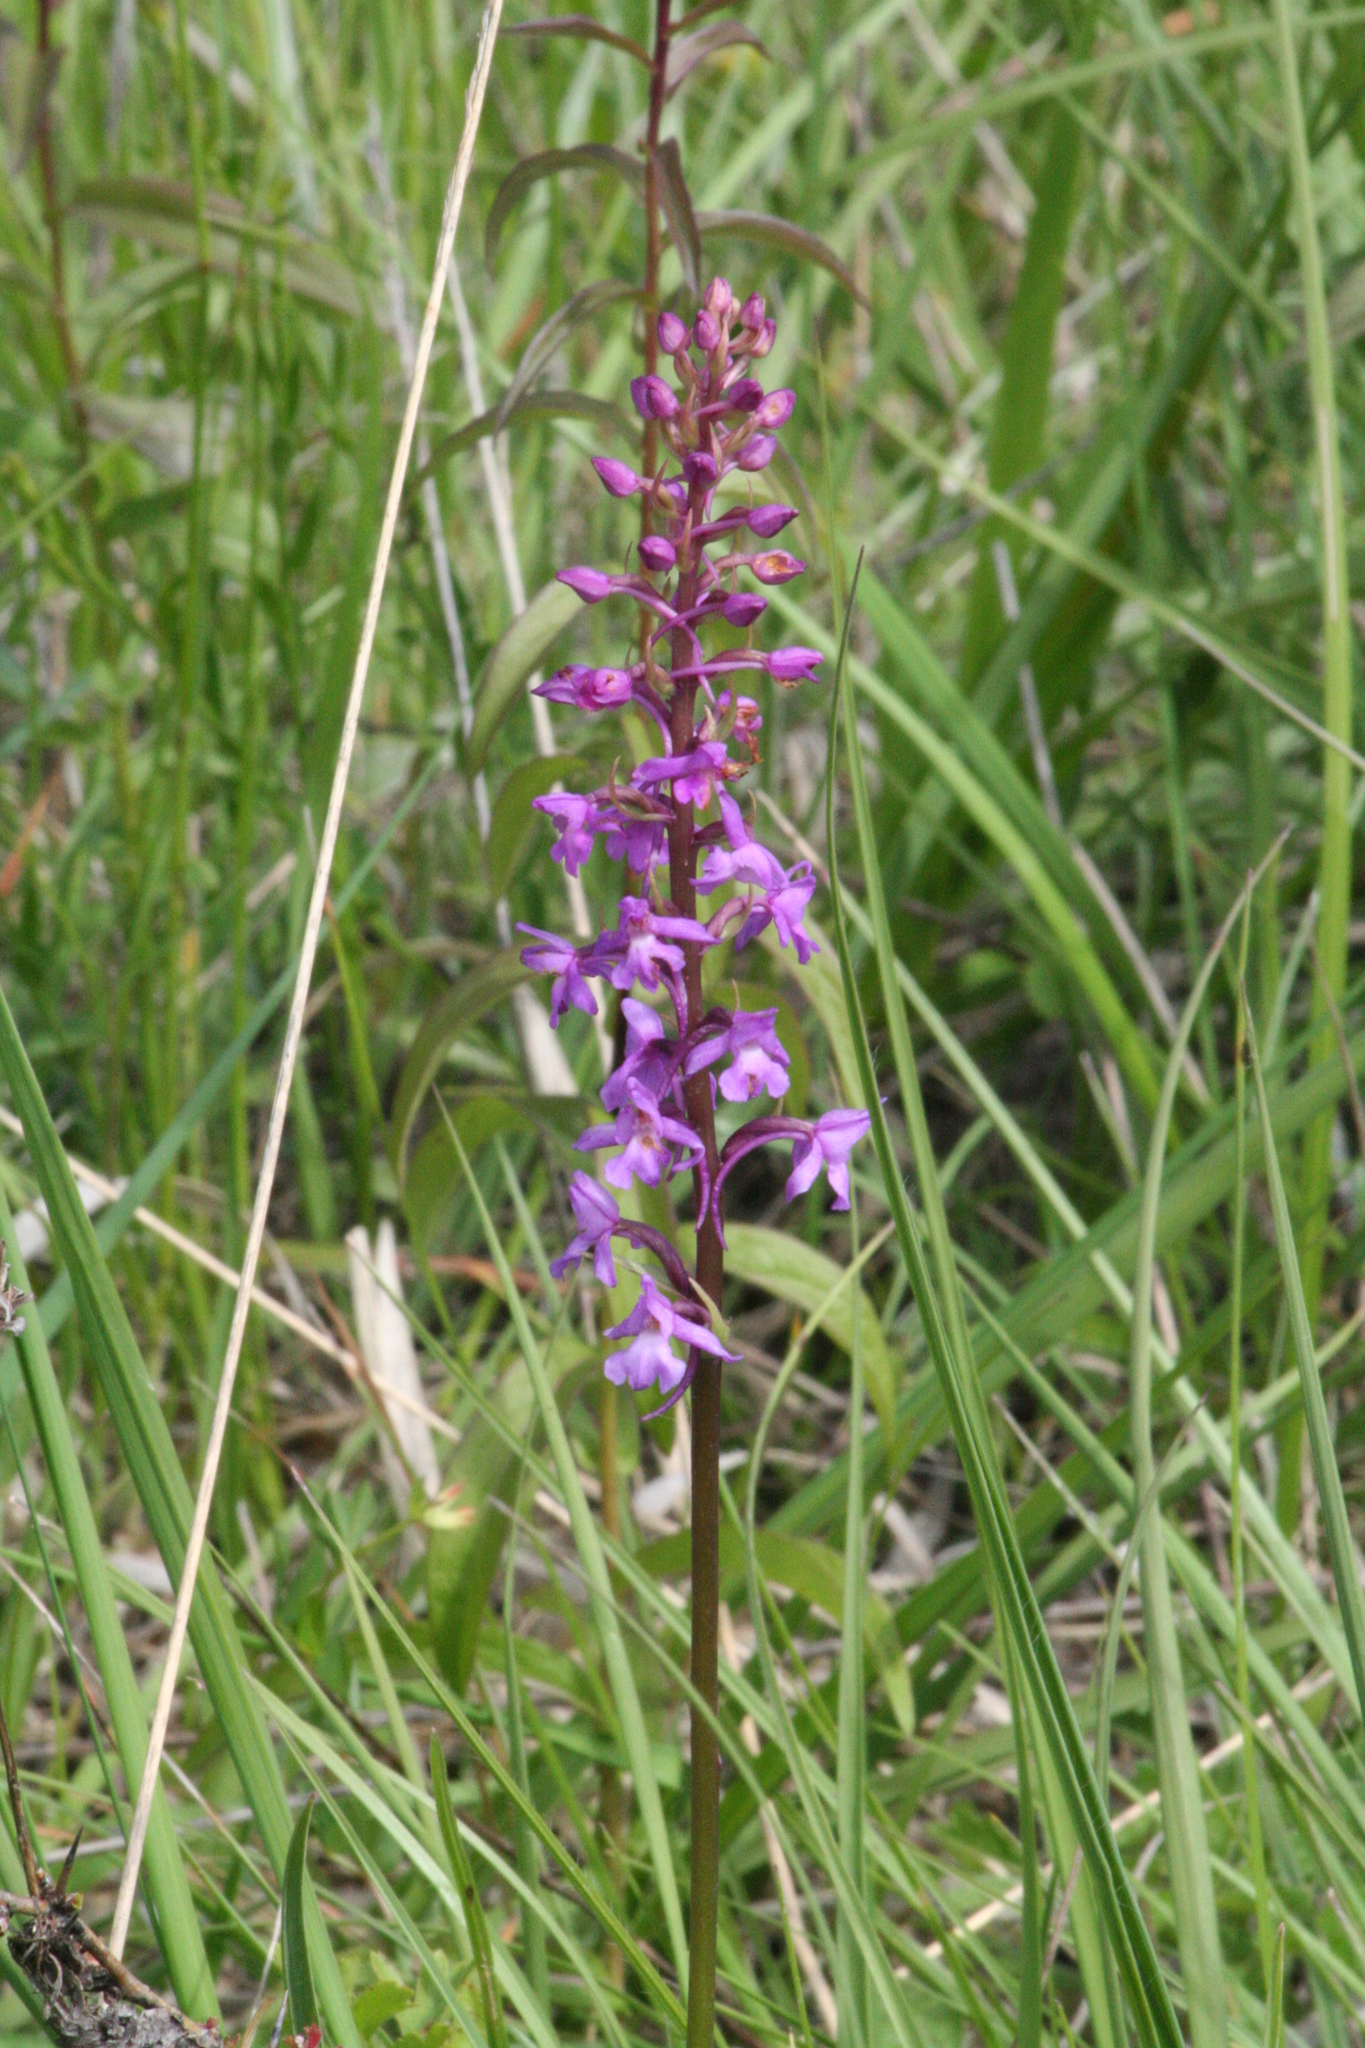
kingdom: Plantae
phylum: Tracheophyta
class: Liliopsida
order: Asparagales
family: Orchidaceae
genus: Gymnadenia
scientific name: Gymnadenia conopsea
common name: Fragrant orchid
